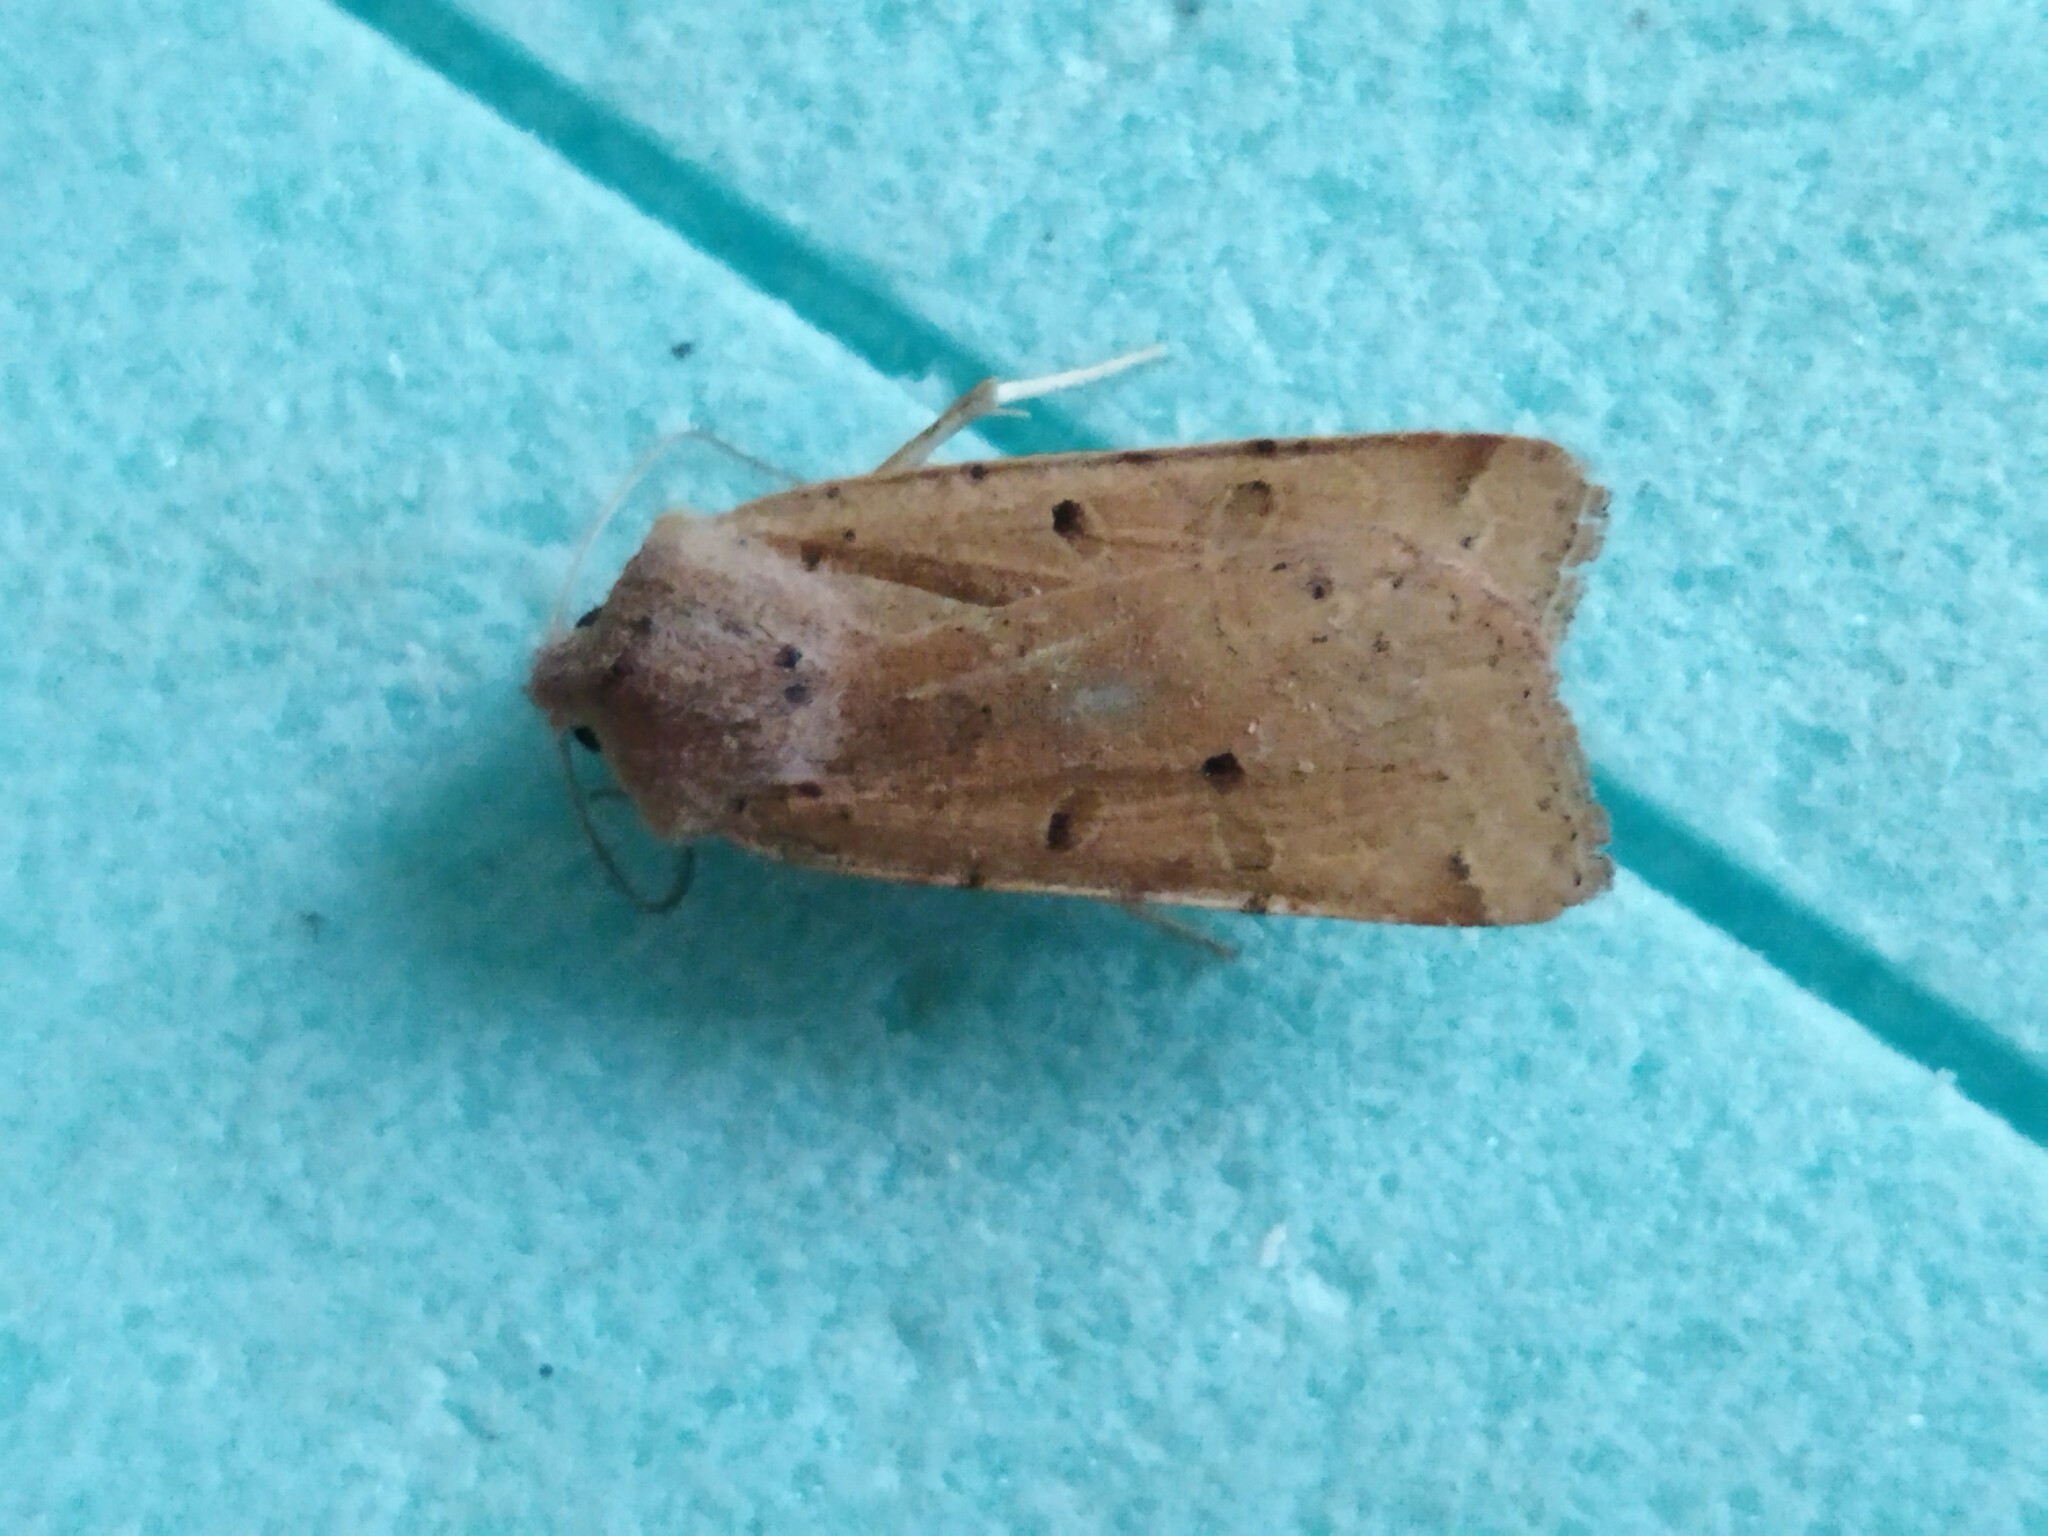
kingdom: Animalia
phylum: Arthropoda
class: Insecta
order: Lepidoptera
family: Noctuidae
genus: Agrochola
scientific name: Agrochola lychnidis
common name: Beaded chestnut
